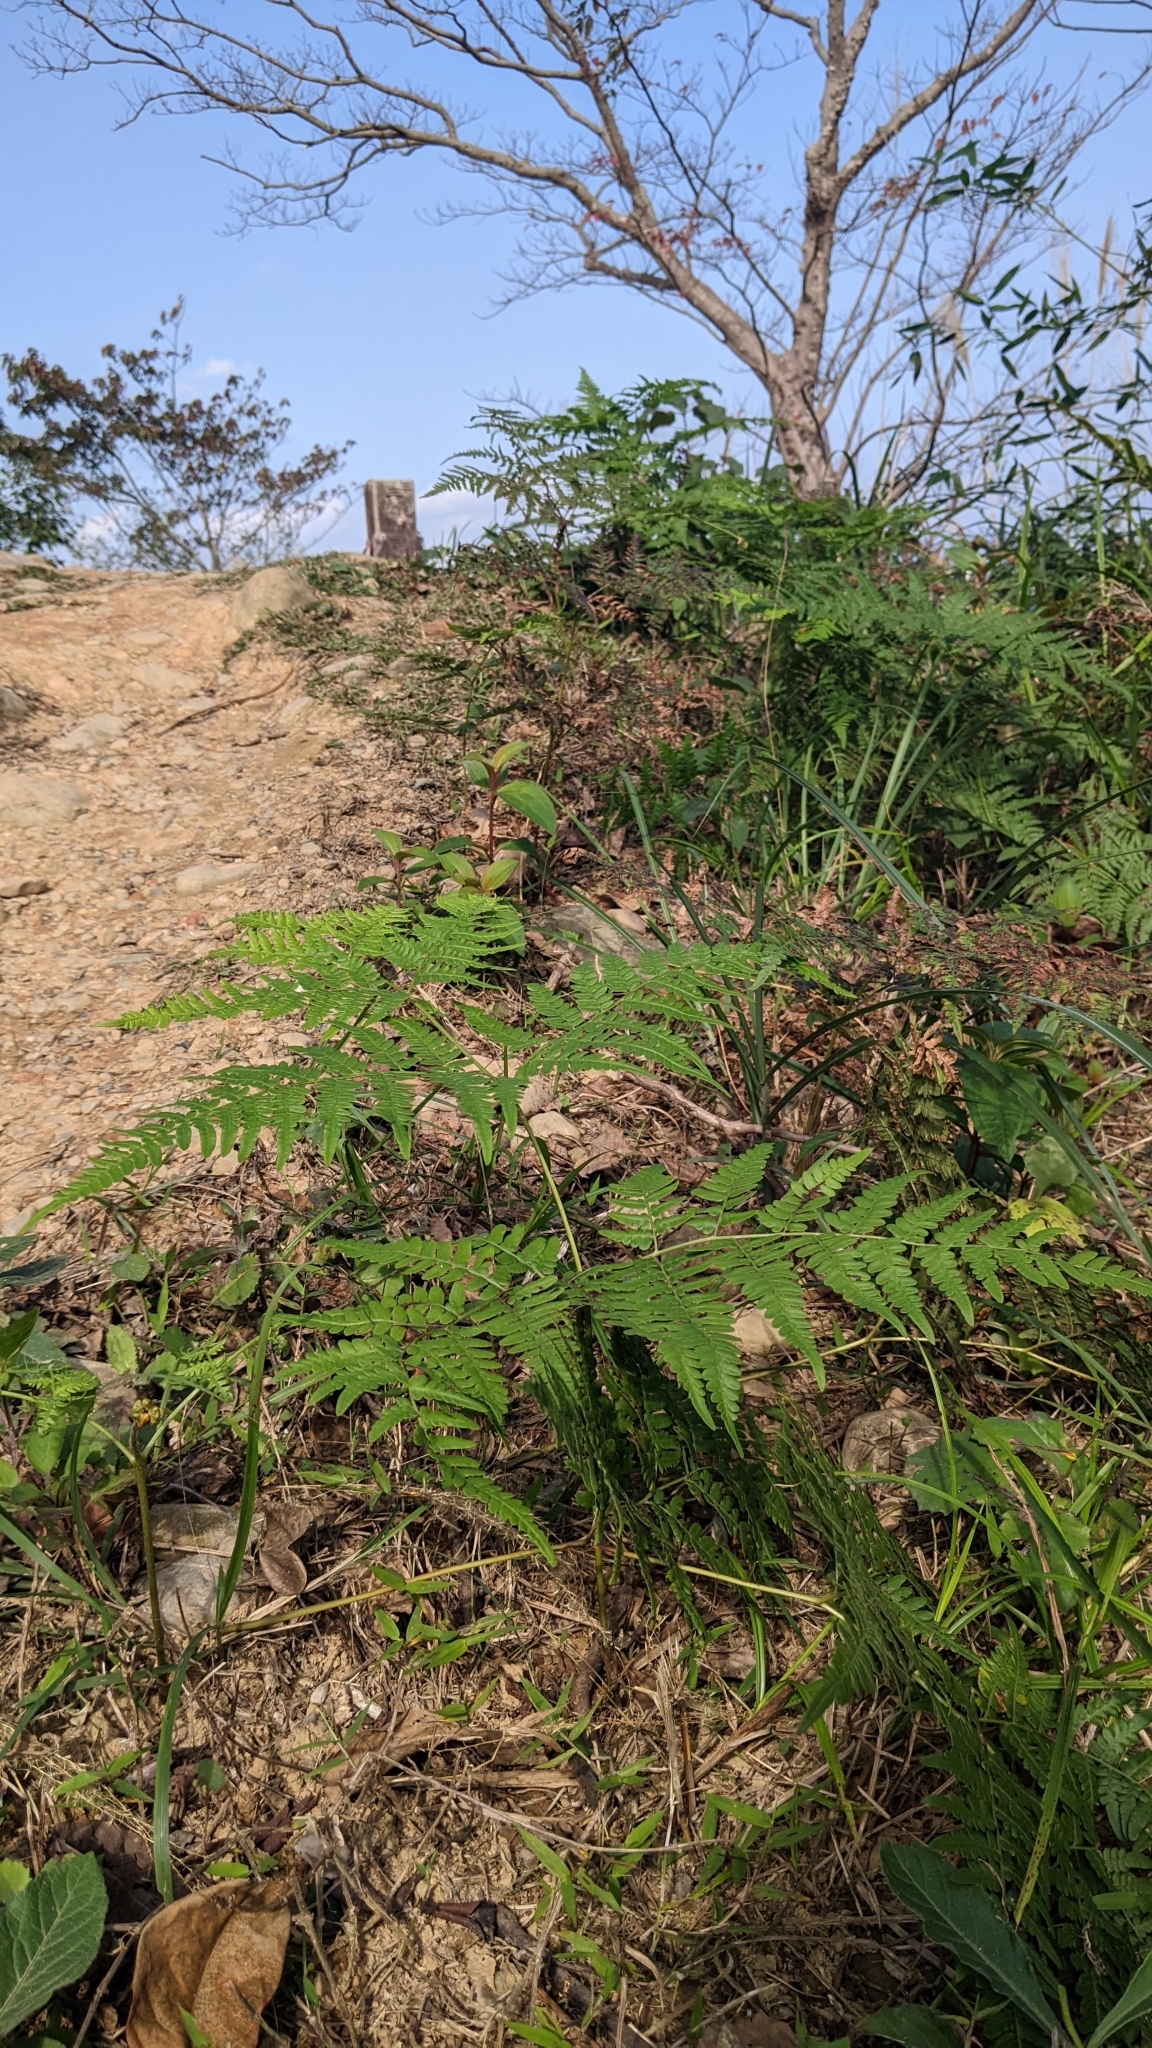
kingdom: Plantae
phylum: Tracheophyta
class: Polypodiopsida
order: Polypodiales
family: Dennstaedtiaceae
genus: Pteridium
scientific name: Pteridium aquilinum
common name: Bracken
